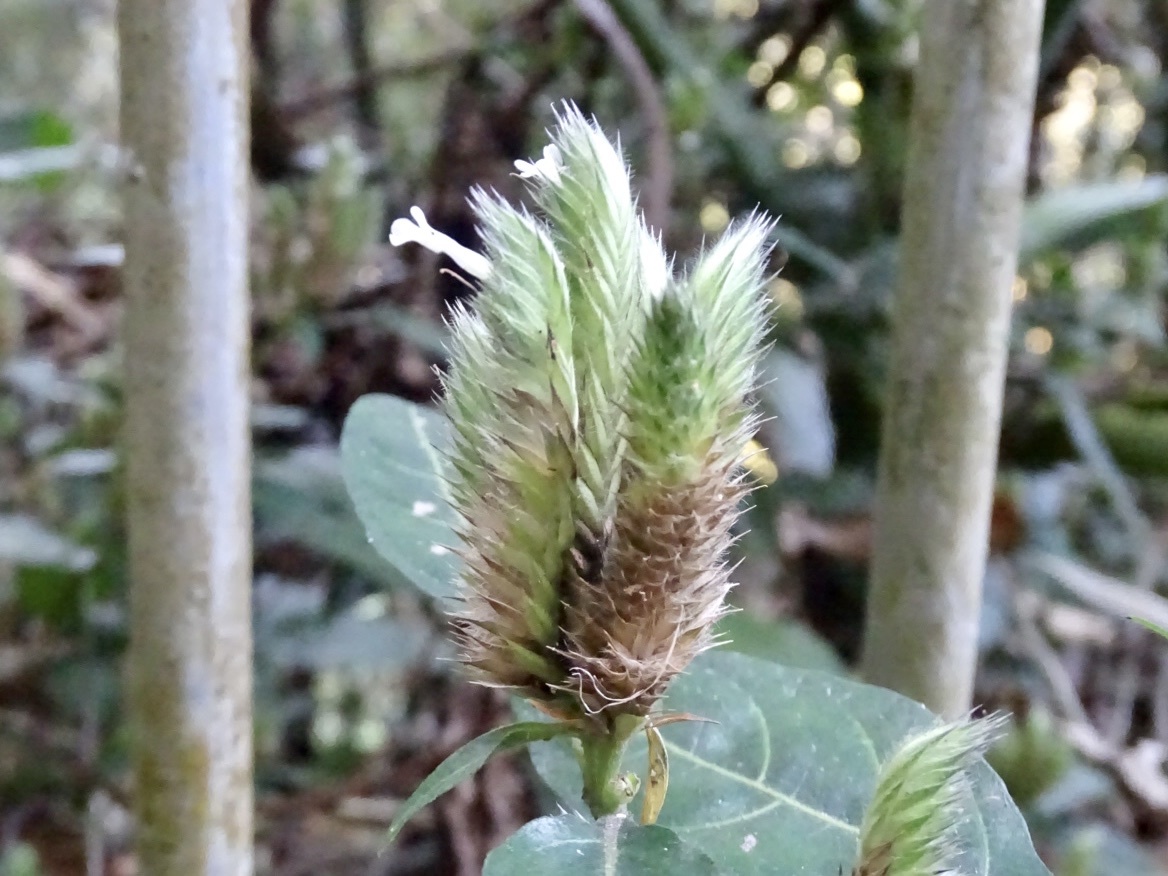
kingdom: Plantae
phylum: Tracheophyta
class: Magnoliopsida
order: Lamiales
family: Acanthaceae
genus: Lepidagathis
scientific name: Lepidagathis incurva
